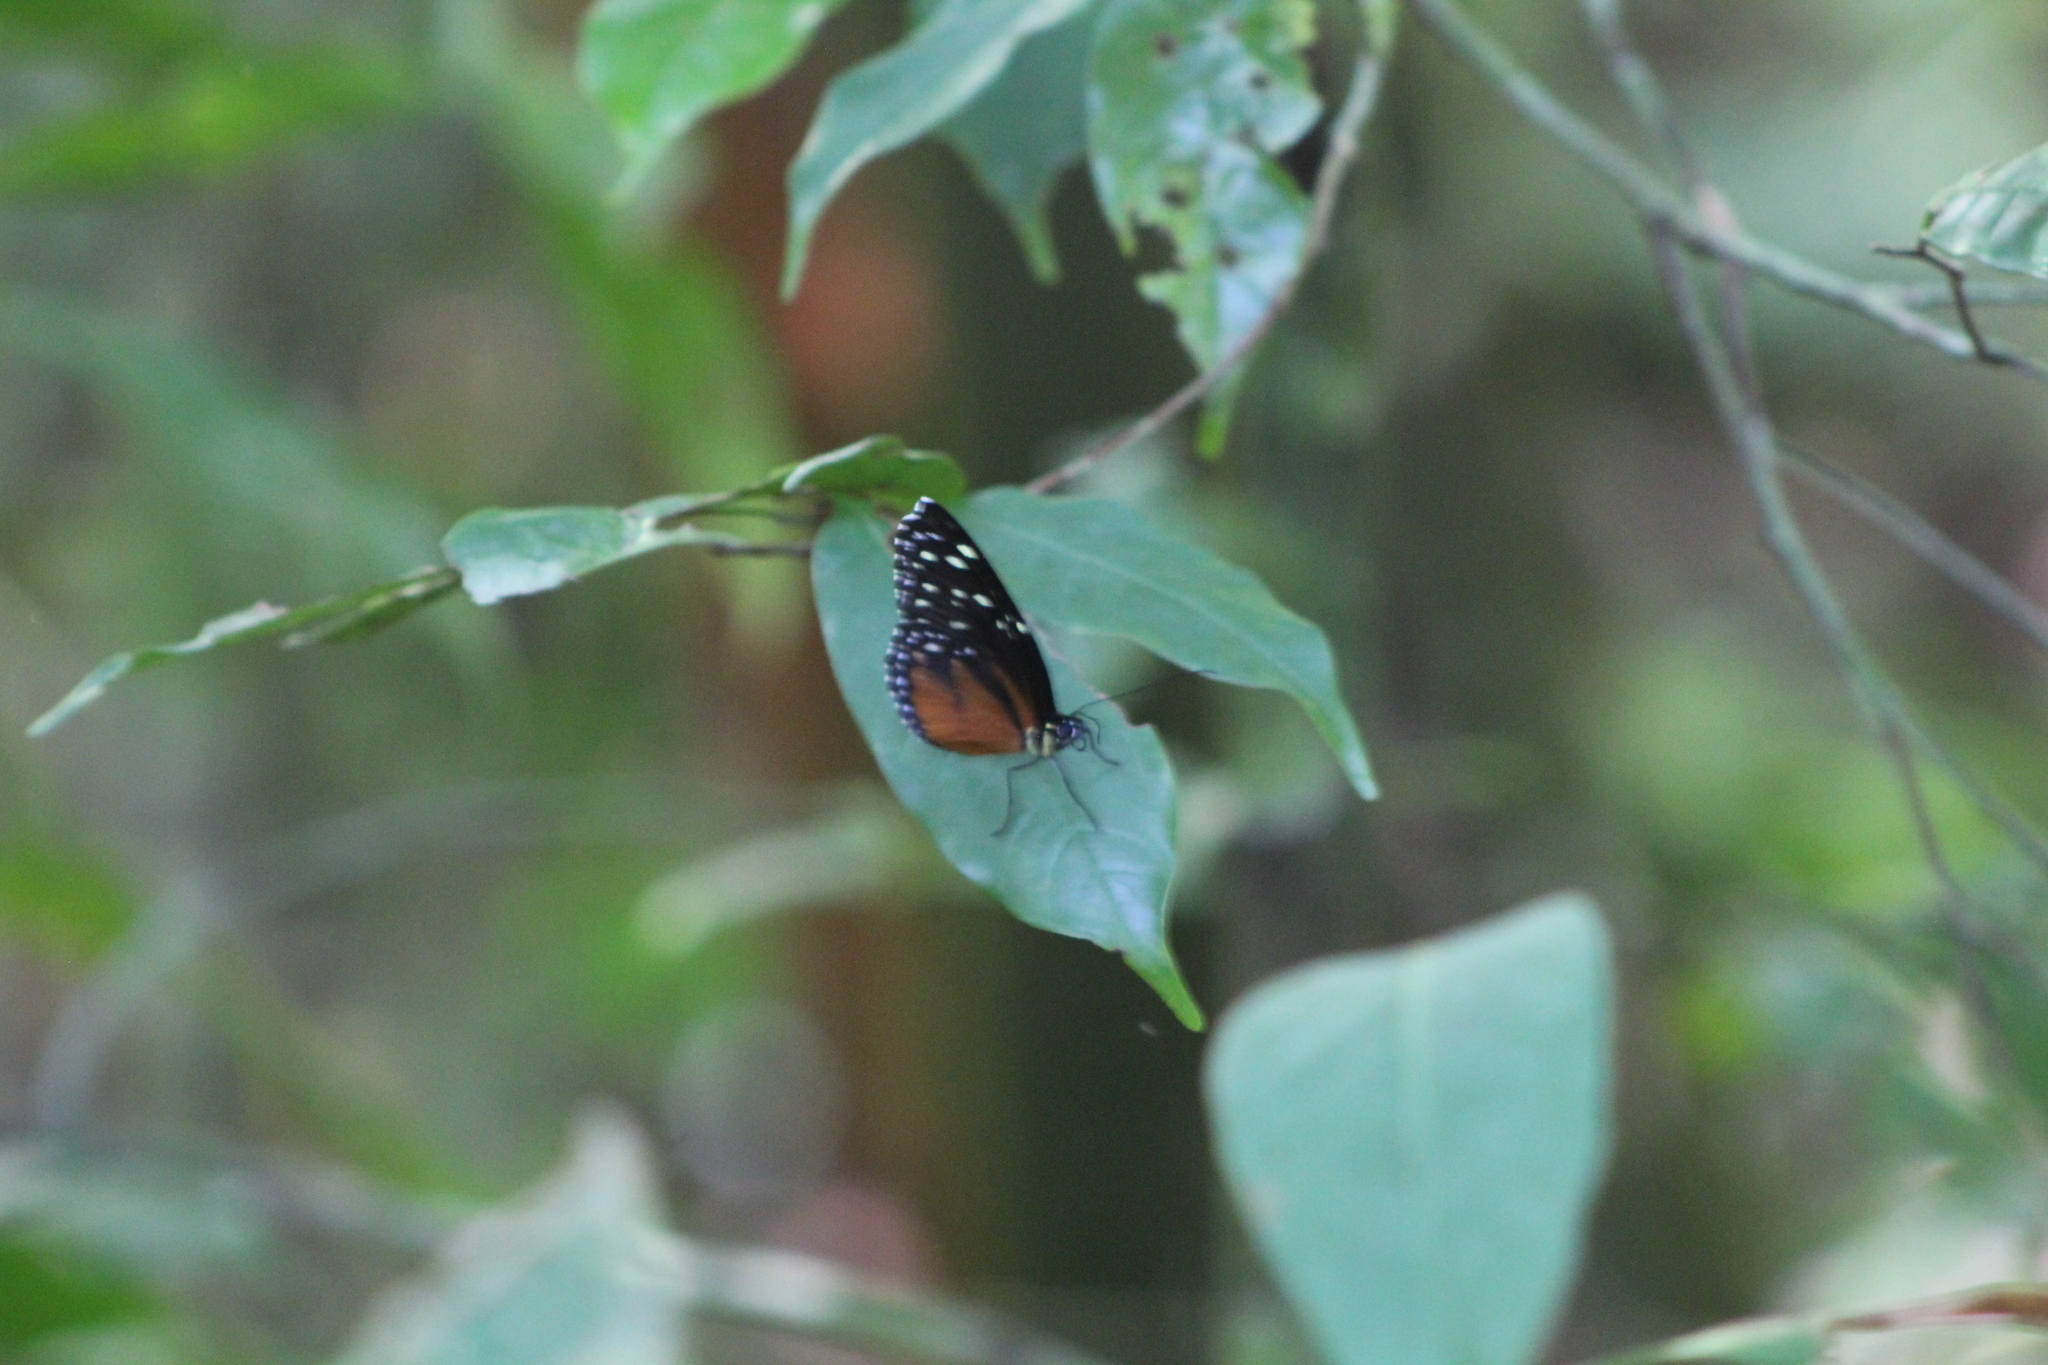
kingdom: Animalia
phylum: Arthropoda
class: Insecta
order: Lepidoptera
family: Nymphalidae
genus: Tithorea
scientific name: Tithorea tarricina
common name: Cream-spotted tigerwing
